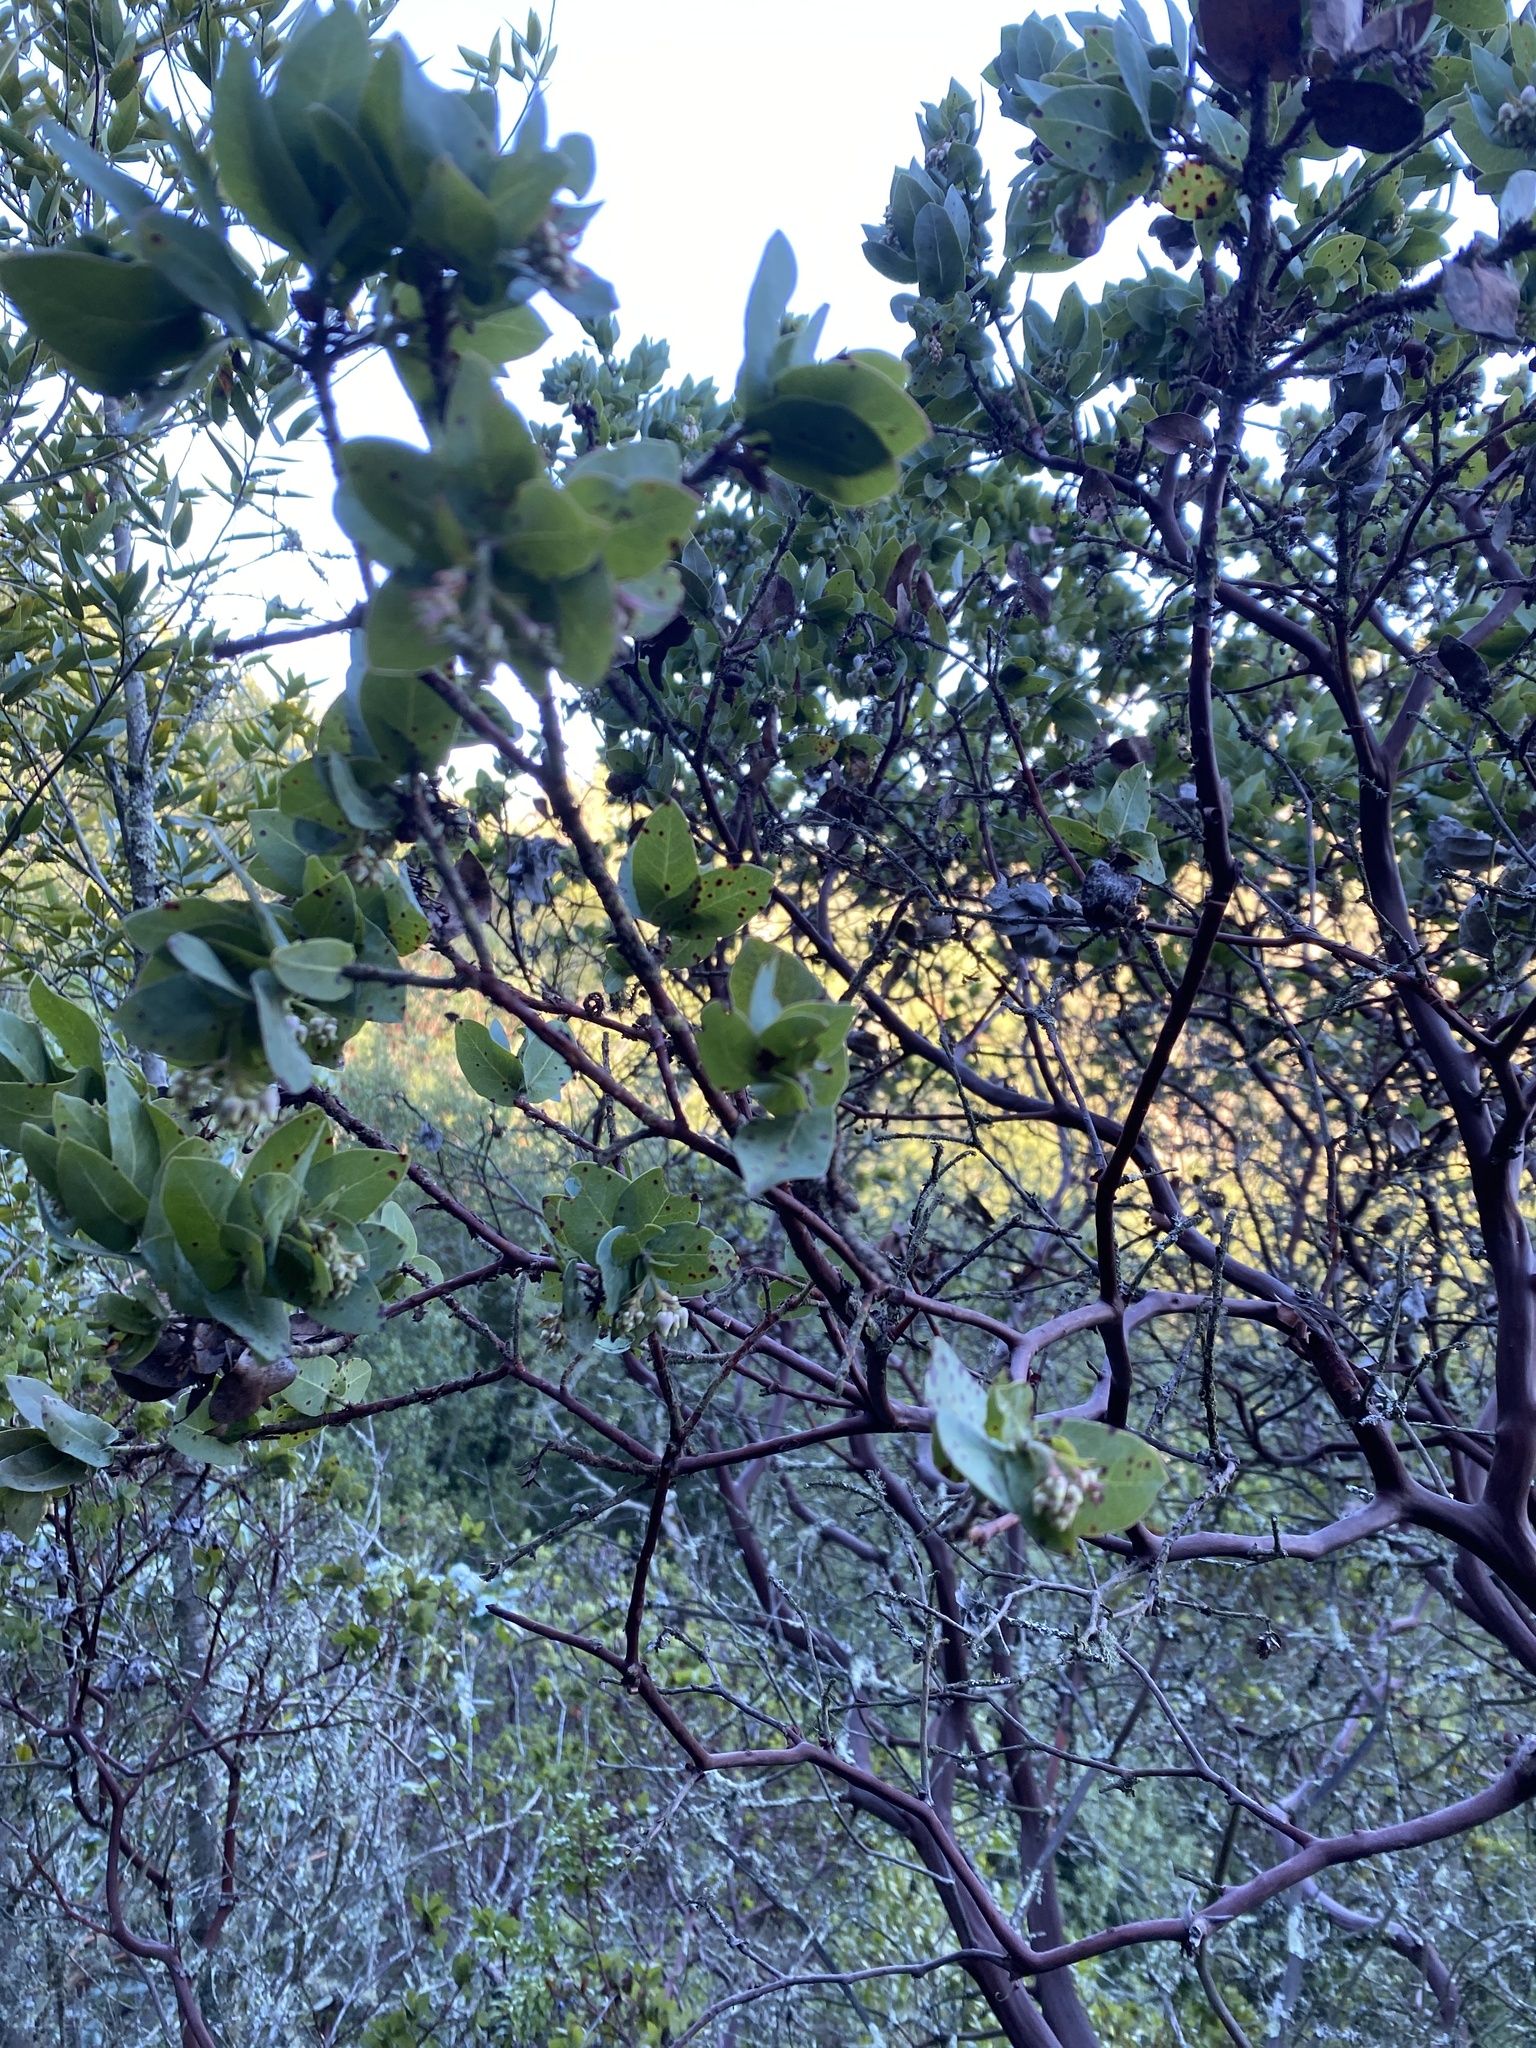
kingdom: Plantae
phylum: Tracheophyta
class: Magnoliopsida
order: Ericales
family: Ericaceae
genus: Arctostaphylos
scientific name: Arctostaphylos pallida
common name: Pallid manzanita
